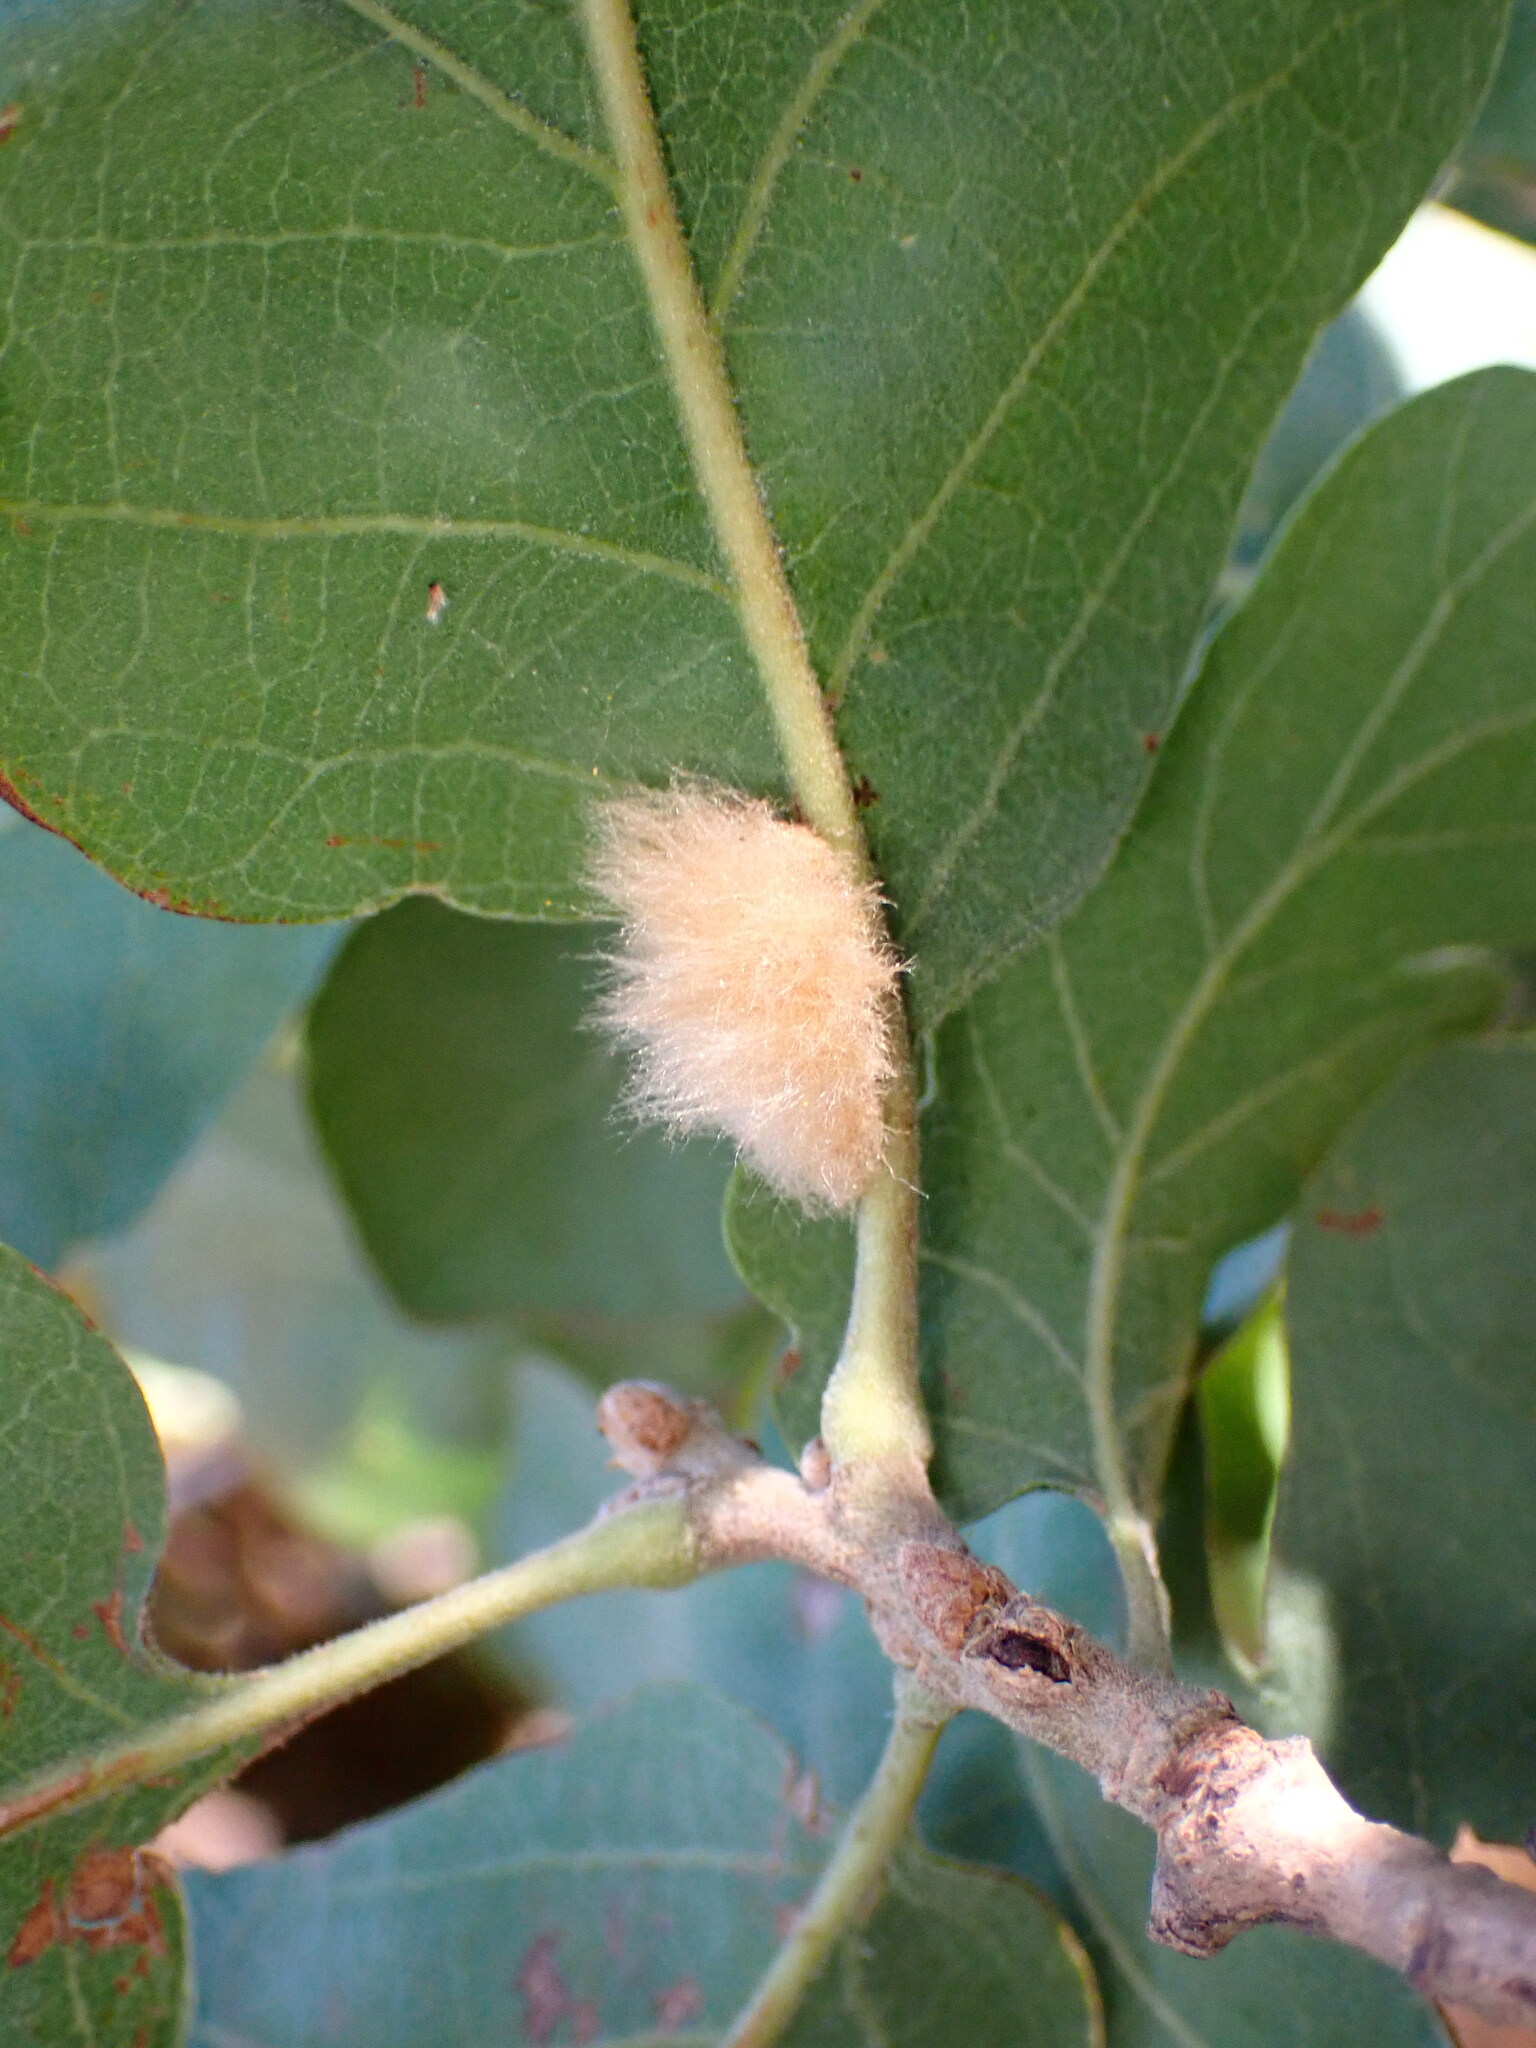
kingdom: Animalia
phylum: Arthropoda
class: Insecta
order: Hymenoptera
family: Cynipidae
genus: Andricus
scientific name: Andricus Druon fullawayi
